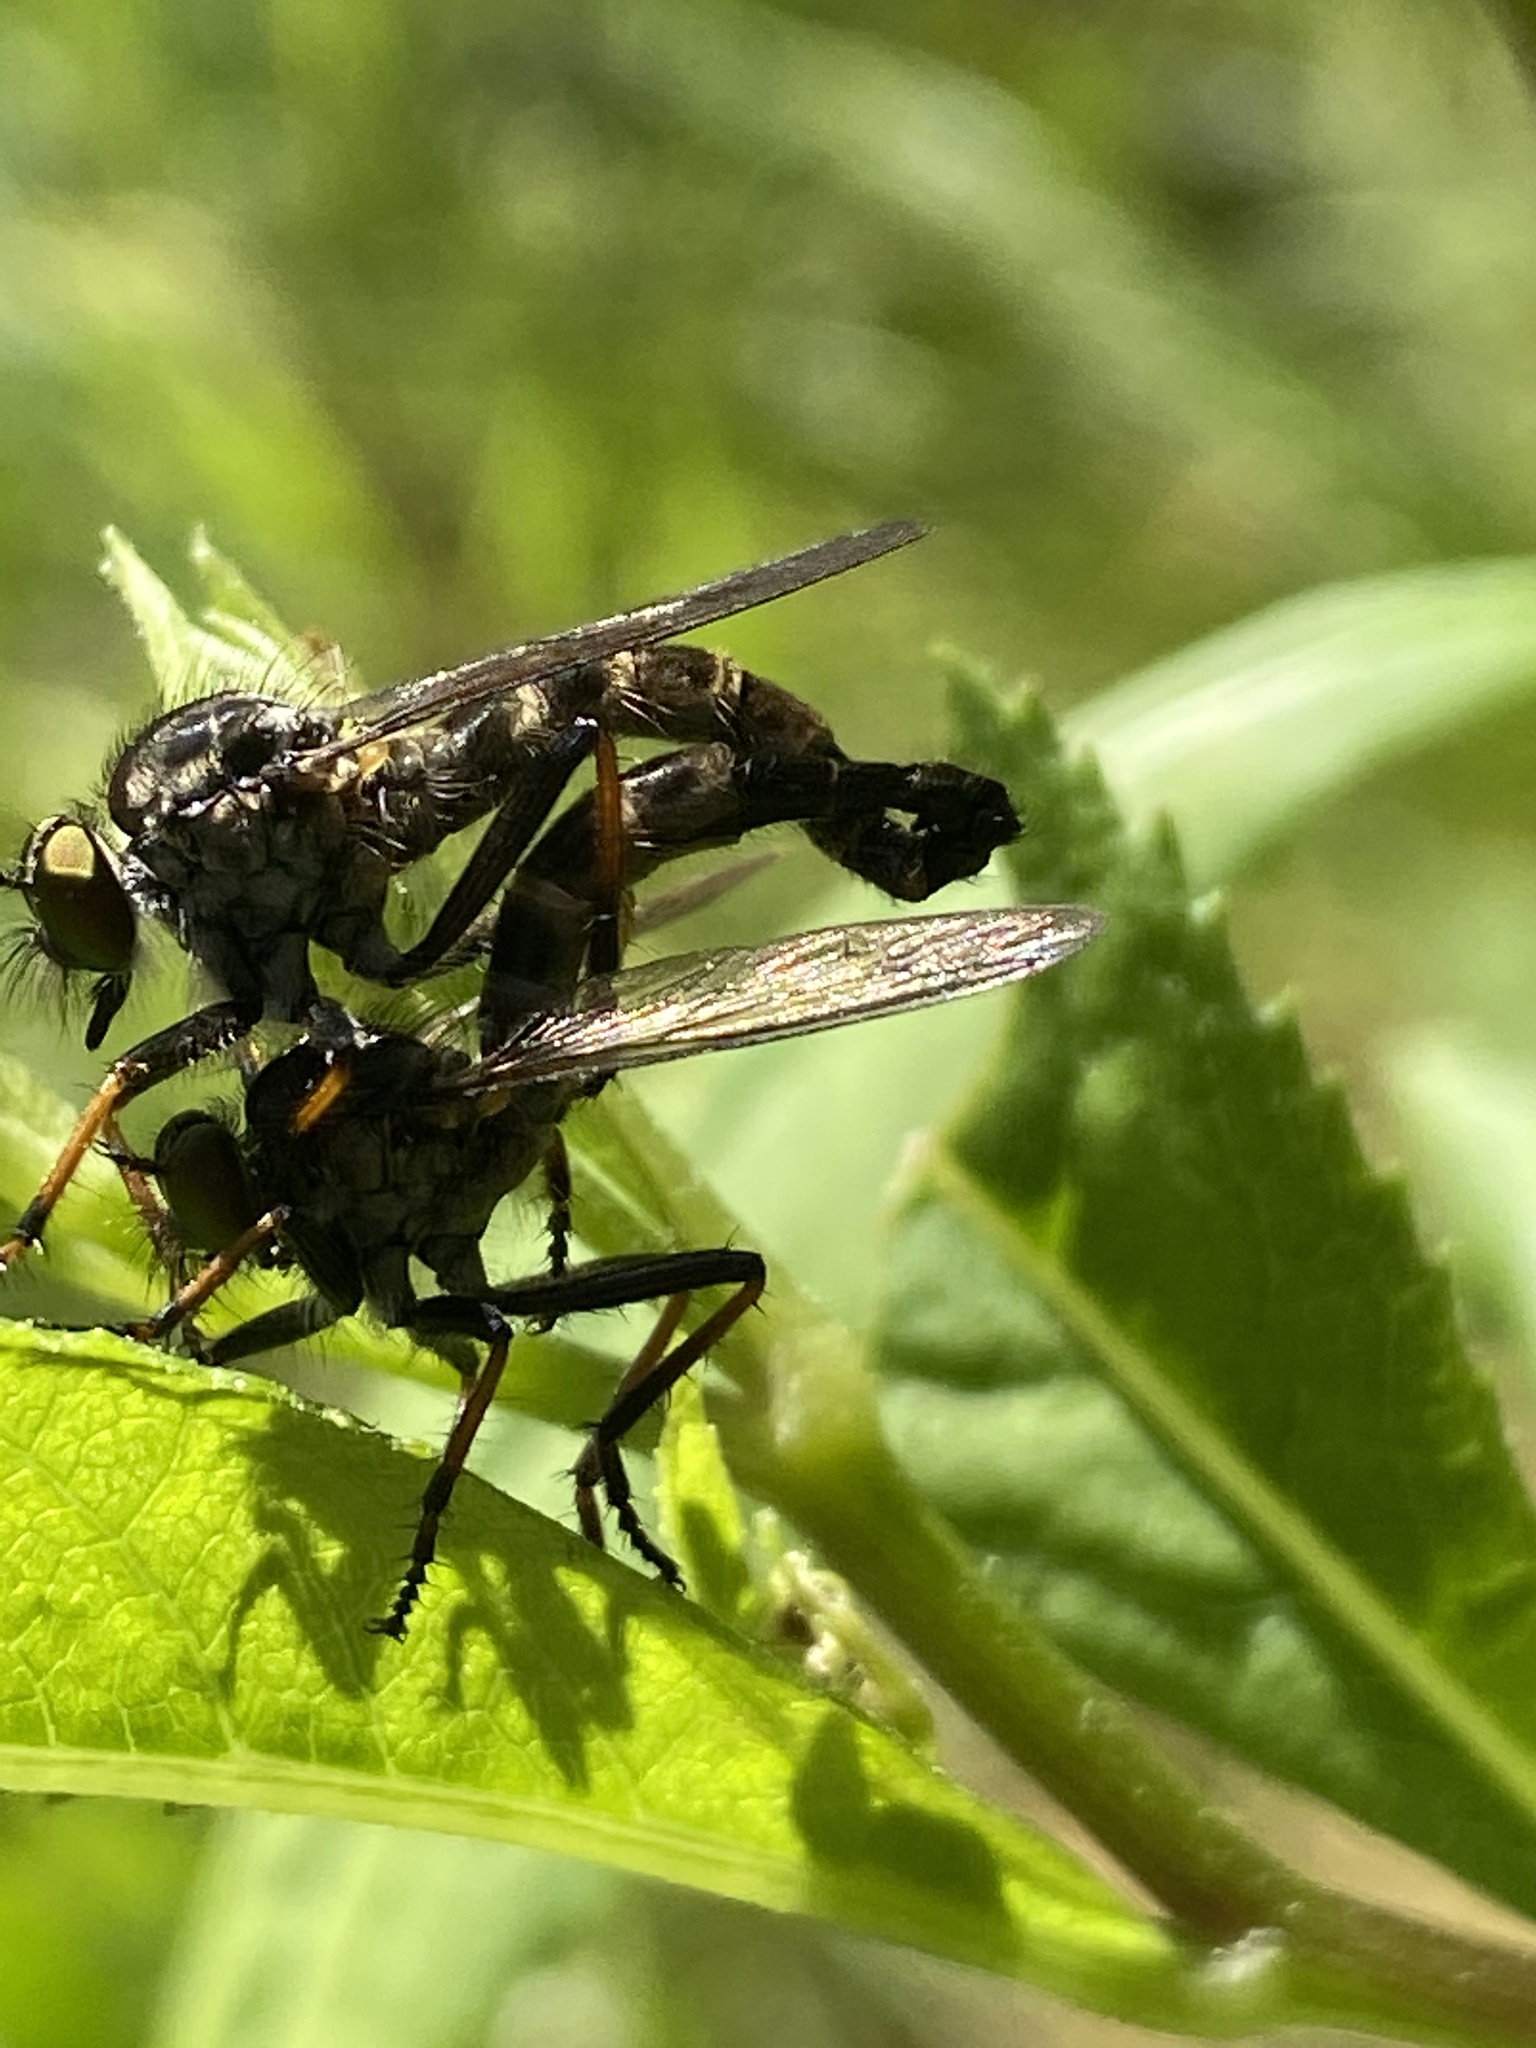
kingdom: Animalia
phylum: Arthropoda
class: Insecta
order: Diptera
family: Asilidae
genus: Neoitamus
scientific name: Neoitamus socius
